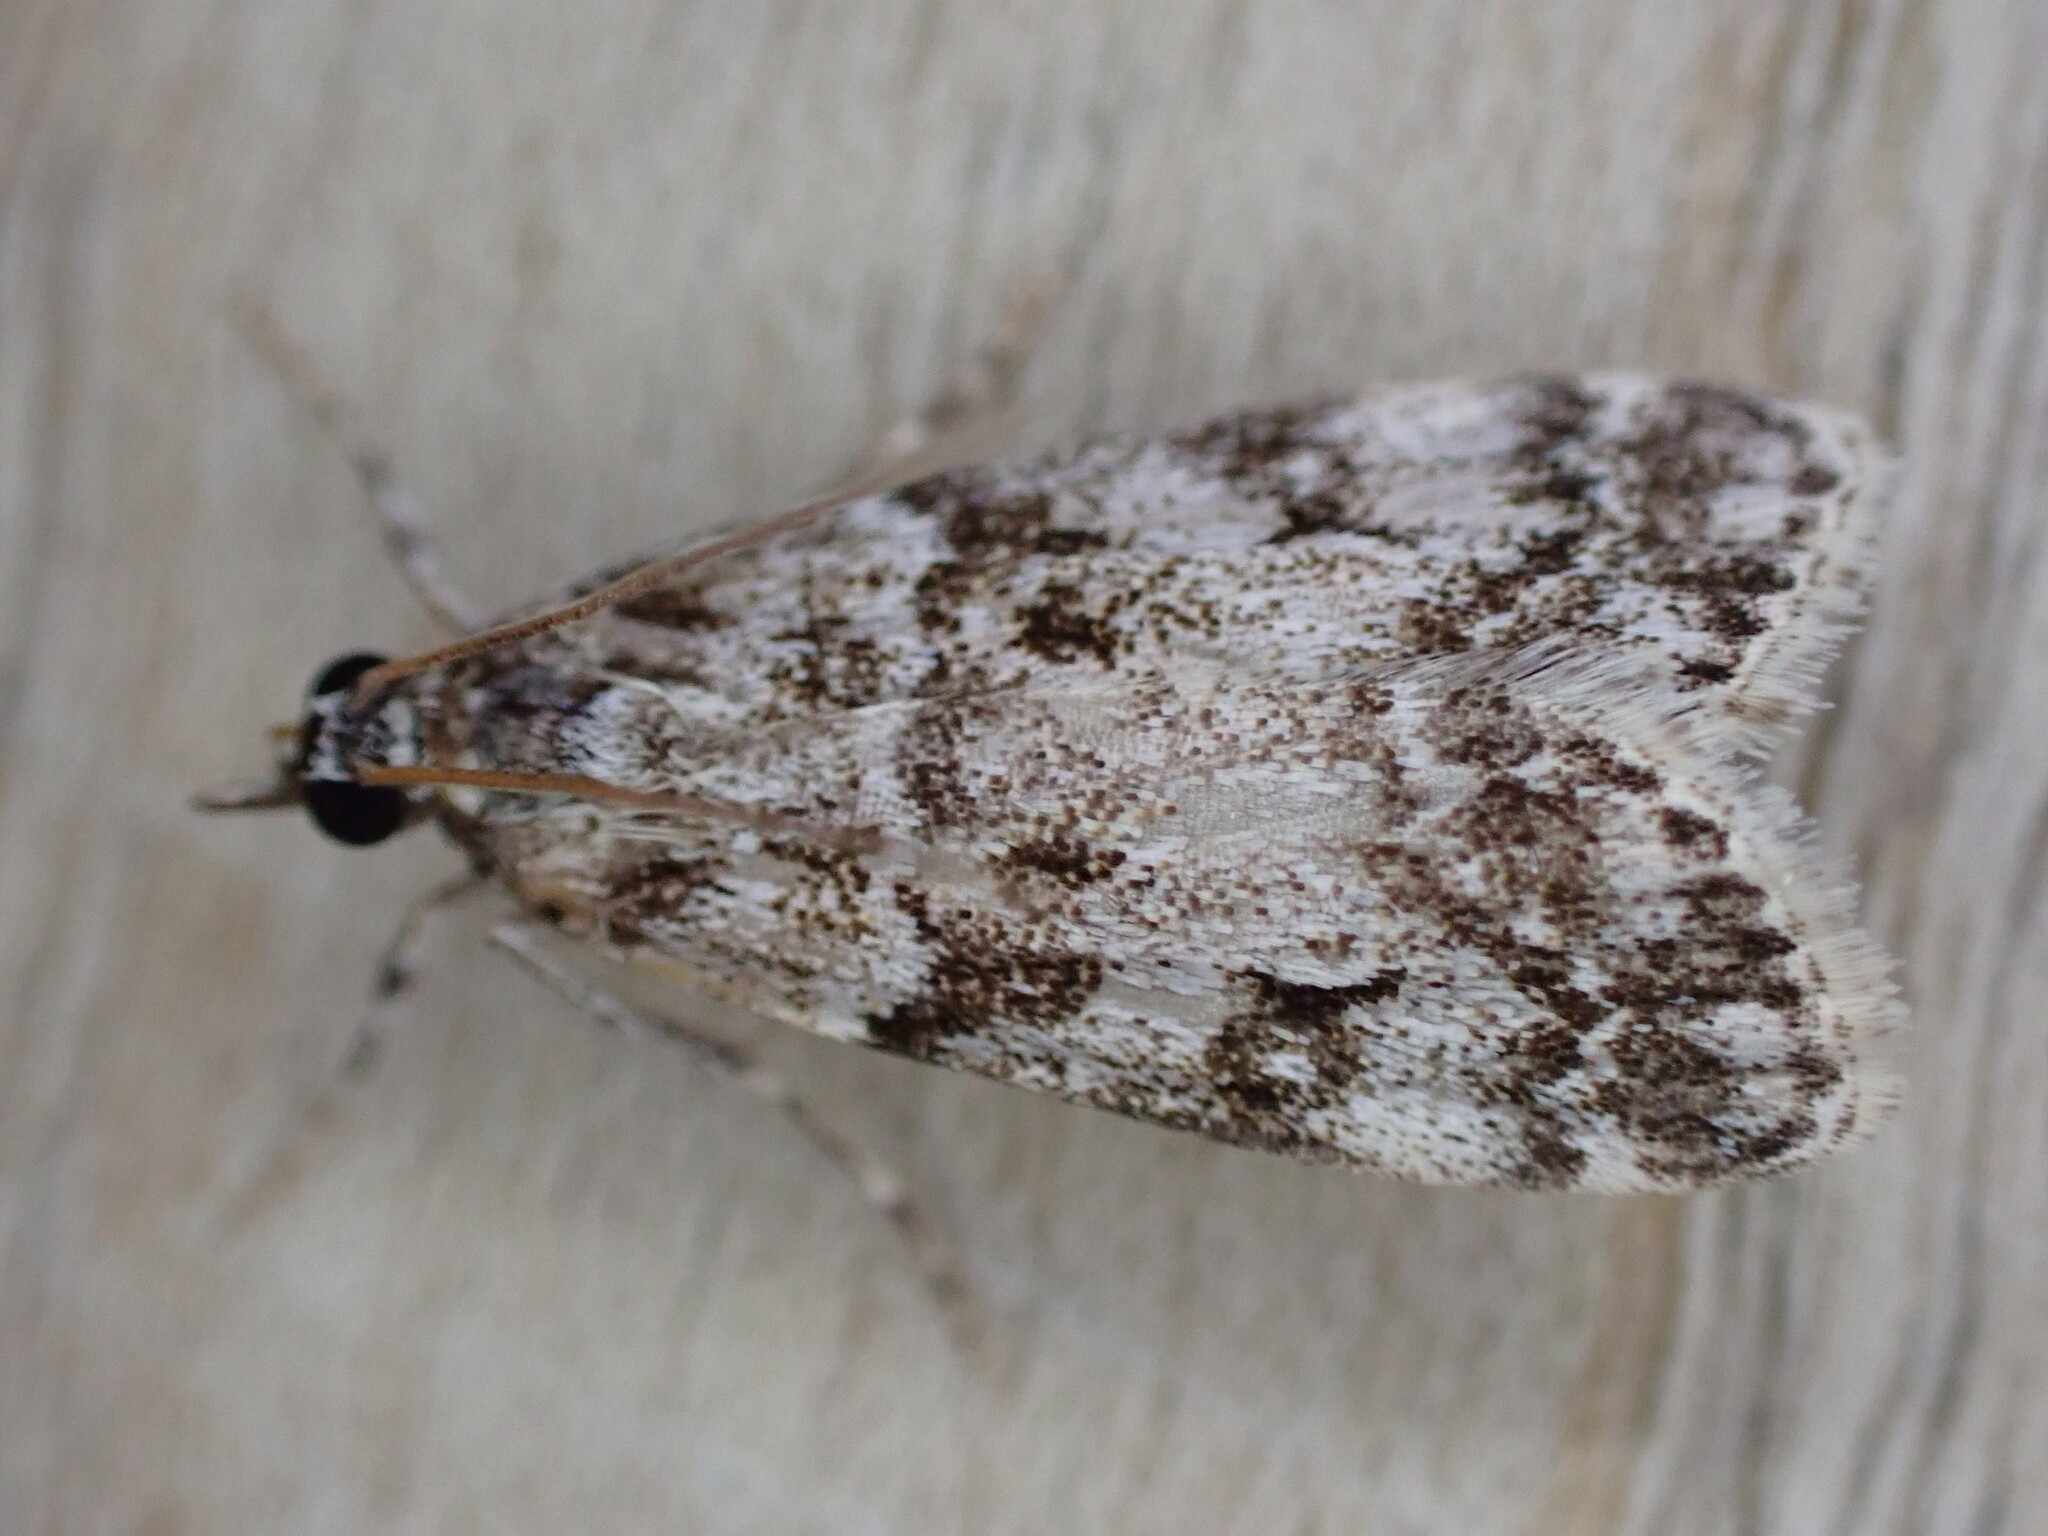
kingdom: Animalia
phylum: Arthropoda
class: Insecta
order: Lepidoptera
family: Crambidae
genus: Eudonia
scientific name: Eudonia lacustrata
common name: Little grey
